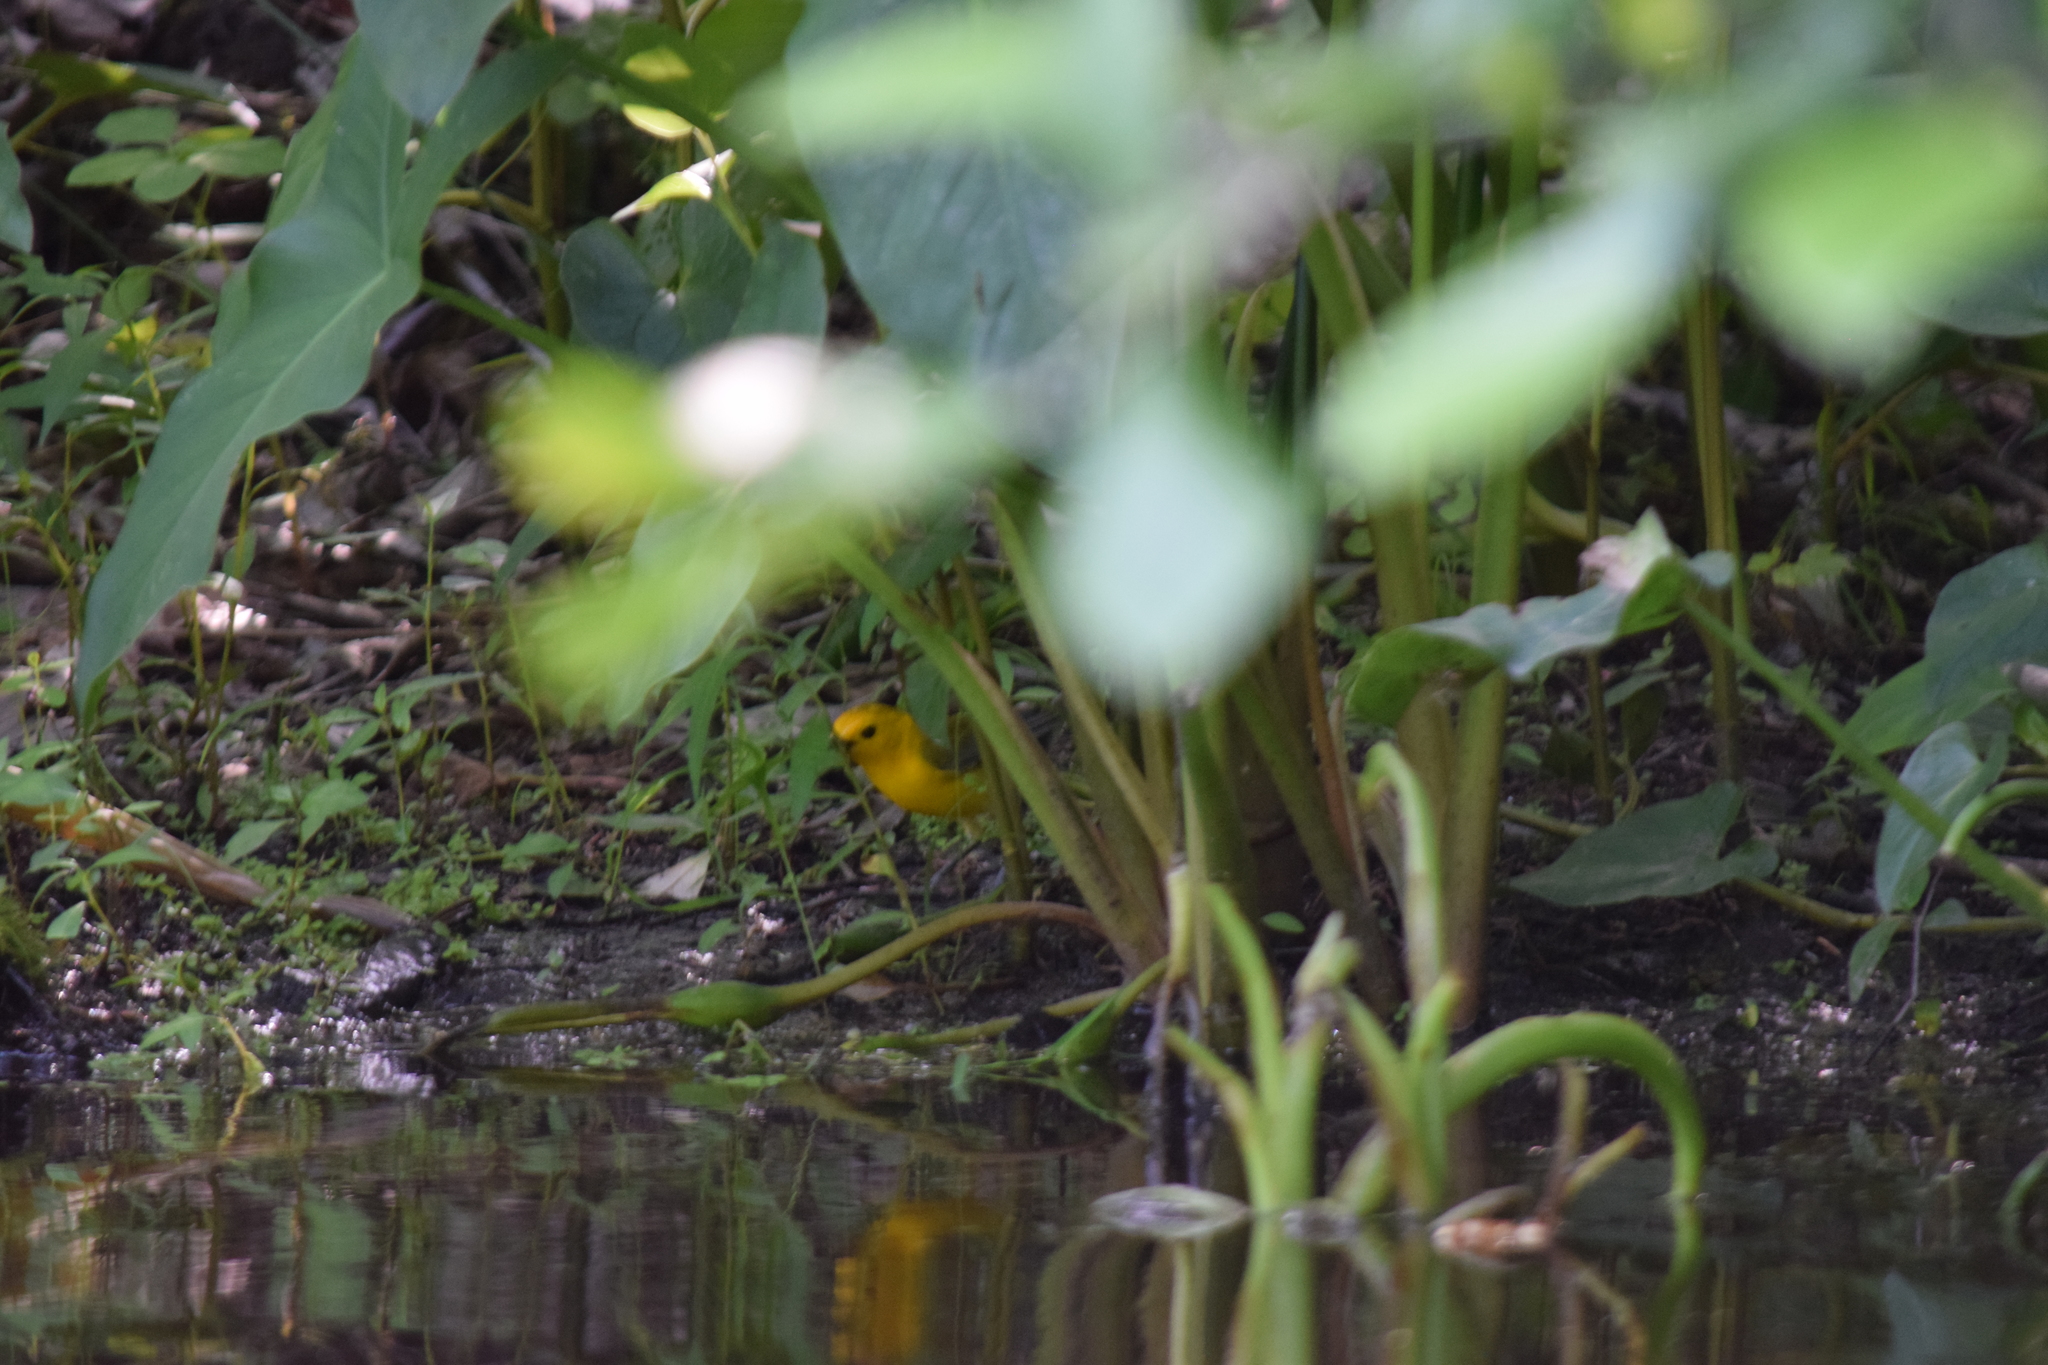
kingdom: Animalia
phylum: Chordata
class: Aves
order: Passeriformes
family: Parulidae
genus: Protonotaria
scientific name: Protonotaria citrea
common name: Prothonotary warbler
